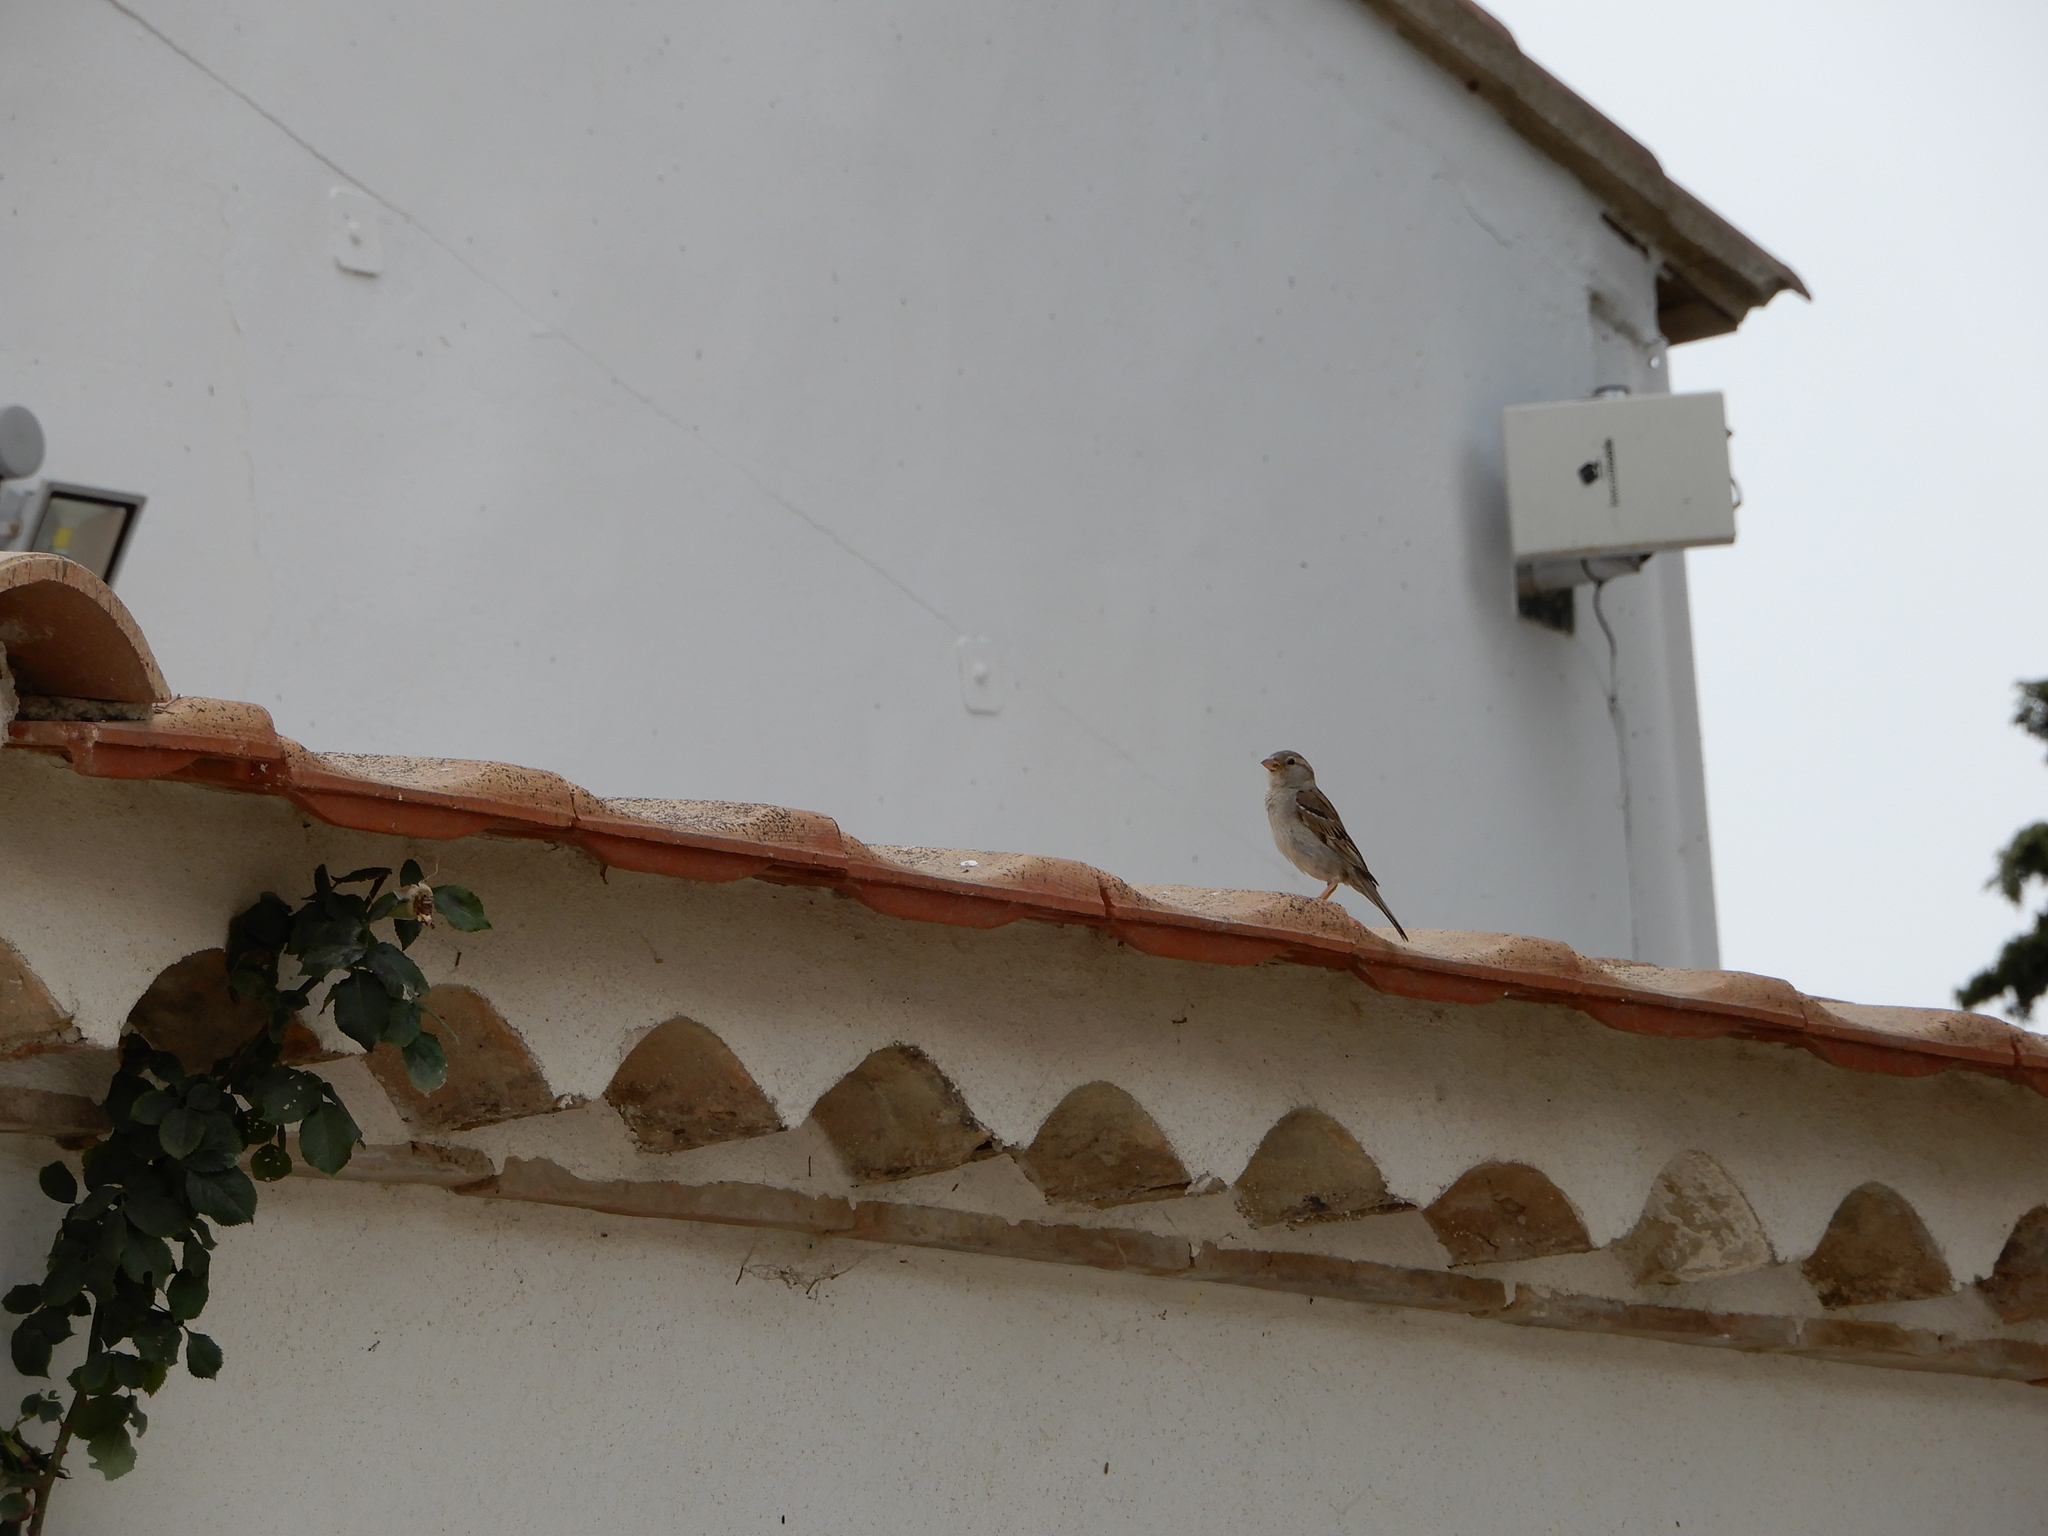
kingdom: Animalia
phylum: Chordata
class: Aves
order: Passeriformes
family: Passeridae
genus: Passer
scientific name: Passer domesticus
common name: House sparrow
